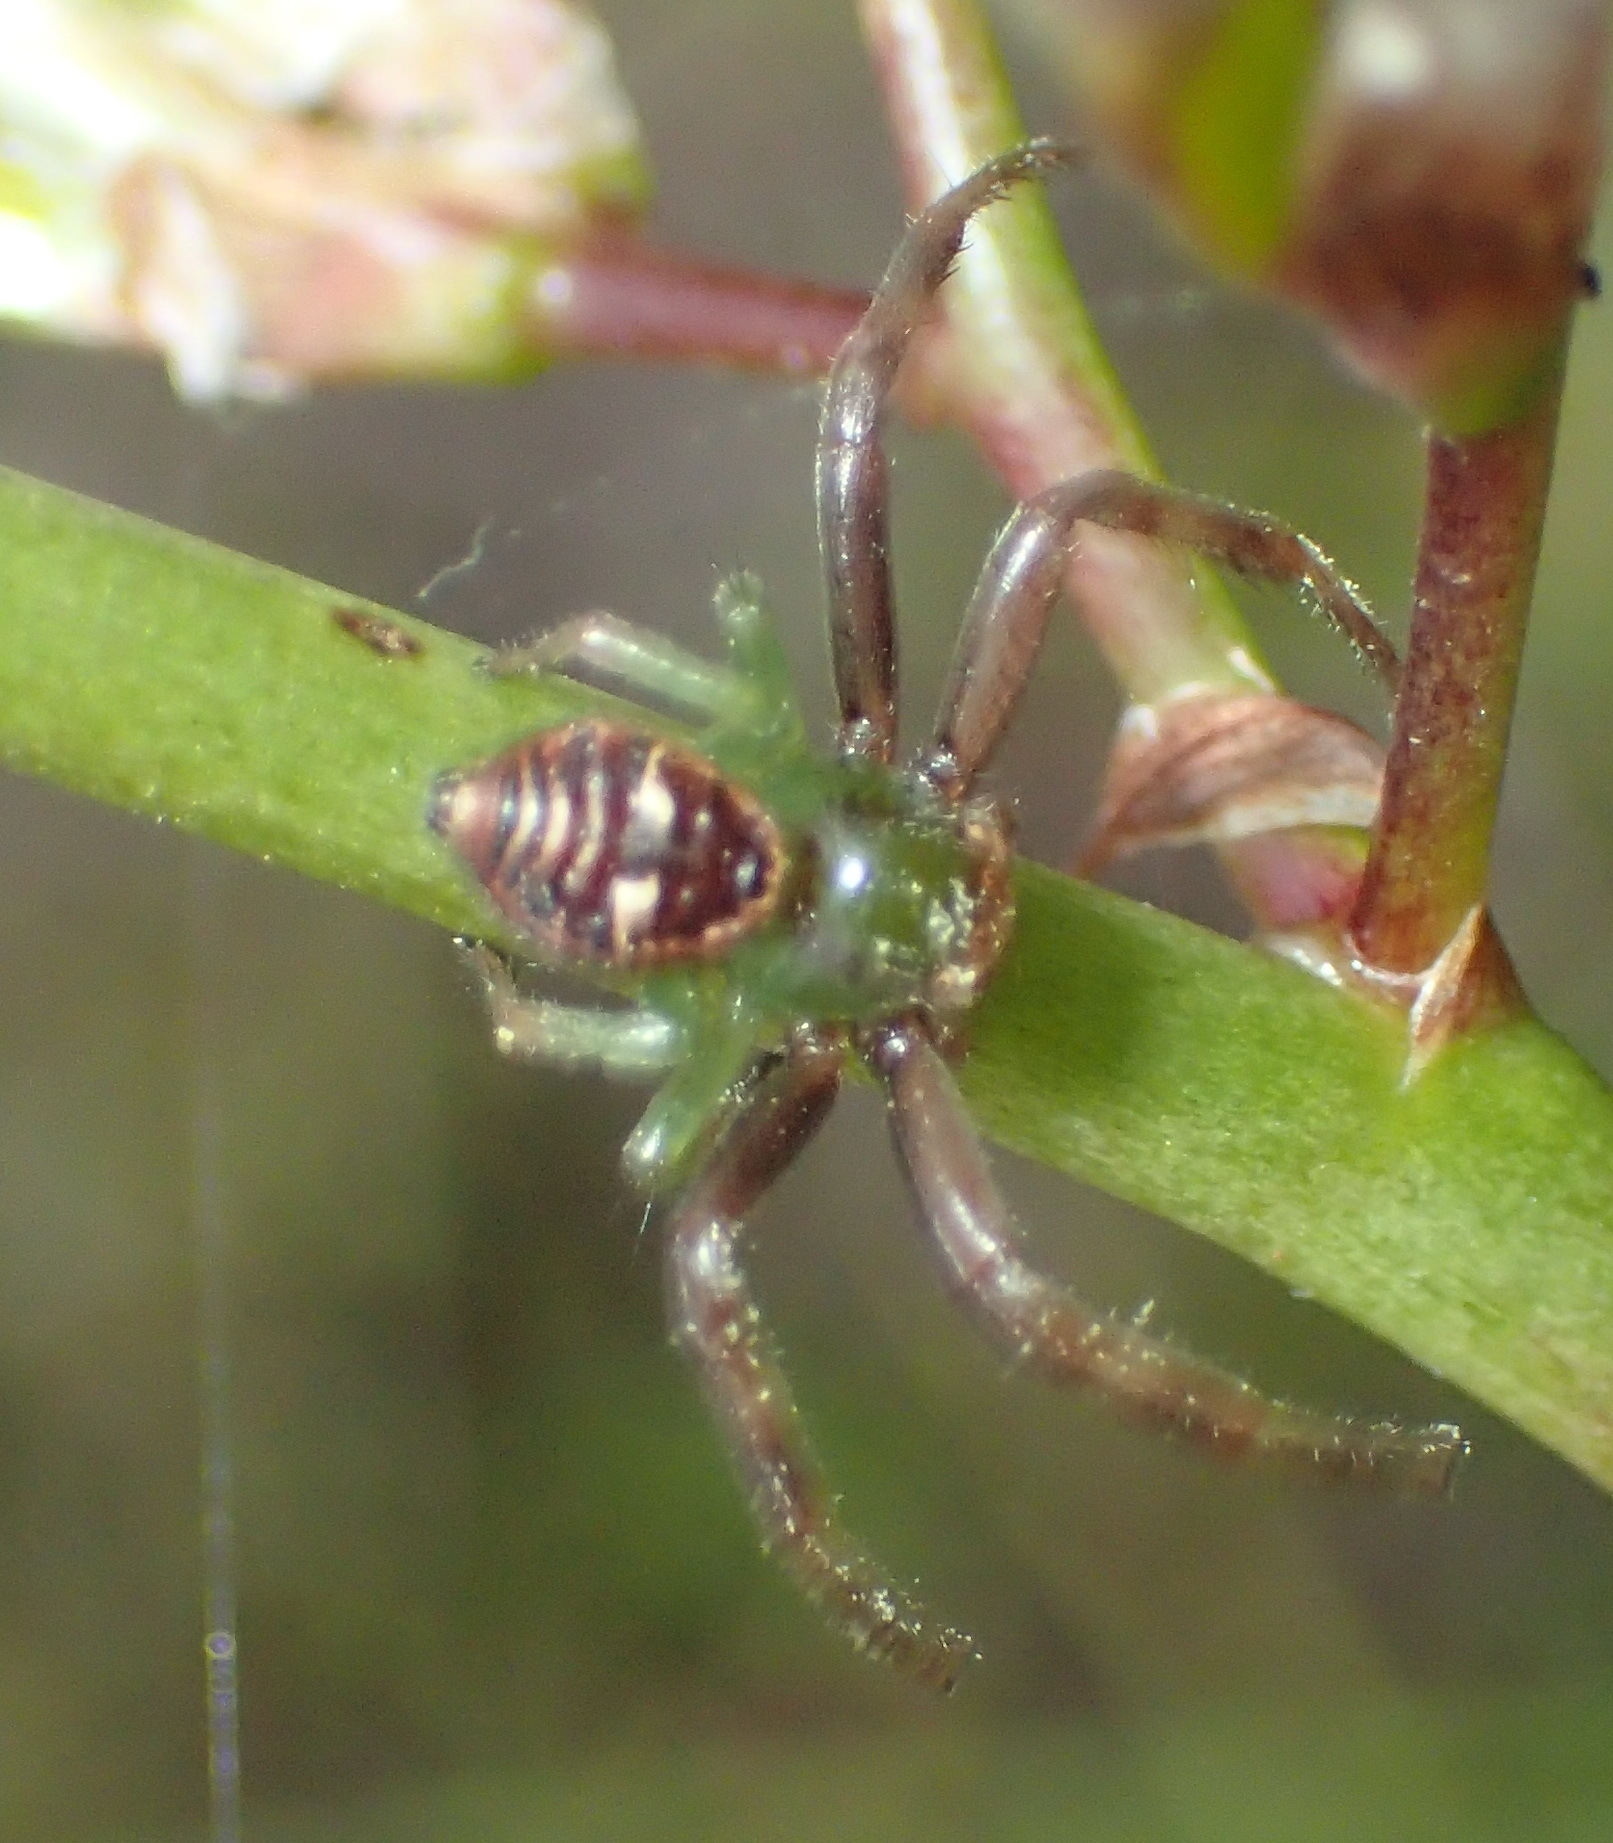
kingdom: Animalia
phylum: Arthropoda
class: Arachnida
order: Araneae
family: Thomisidae
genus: Synema
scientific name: Synema imitatrix
